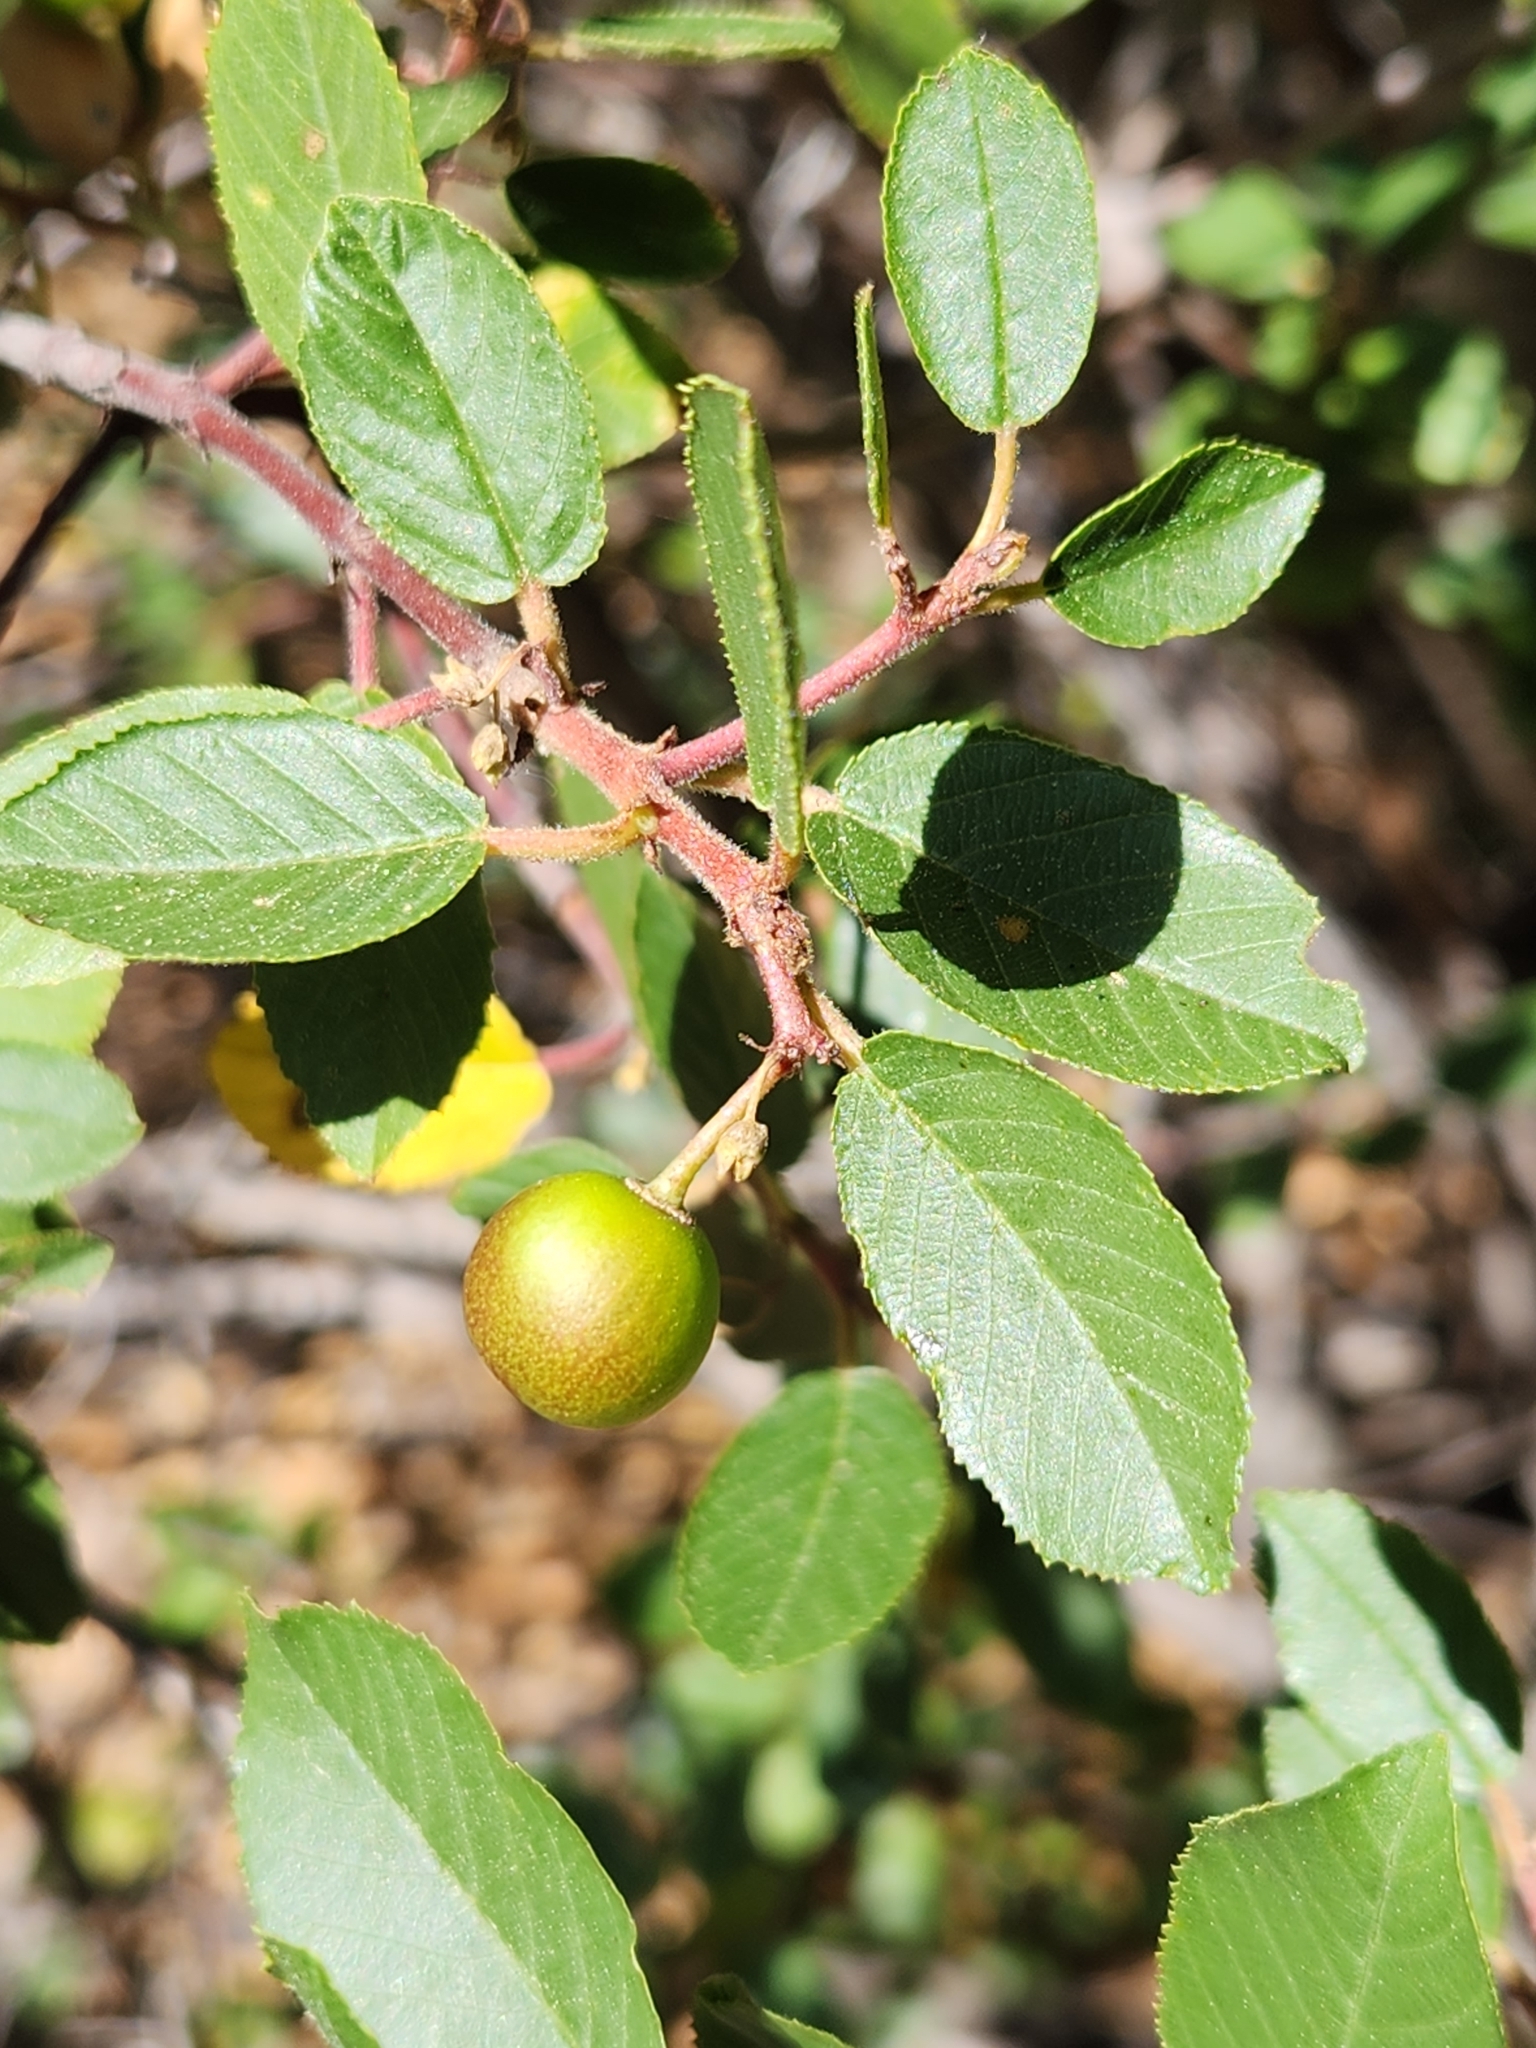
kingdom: Plantae
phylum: Tracheophyta
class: Magnoliopsida
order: Rosales
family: Rhamnaceae
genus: Frangula
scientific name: Frangula californica
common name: California buckthorn
